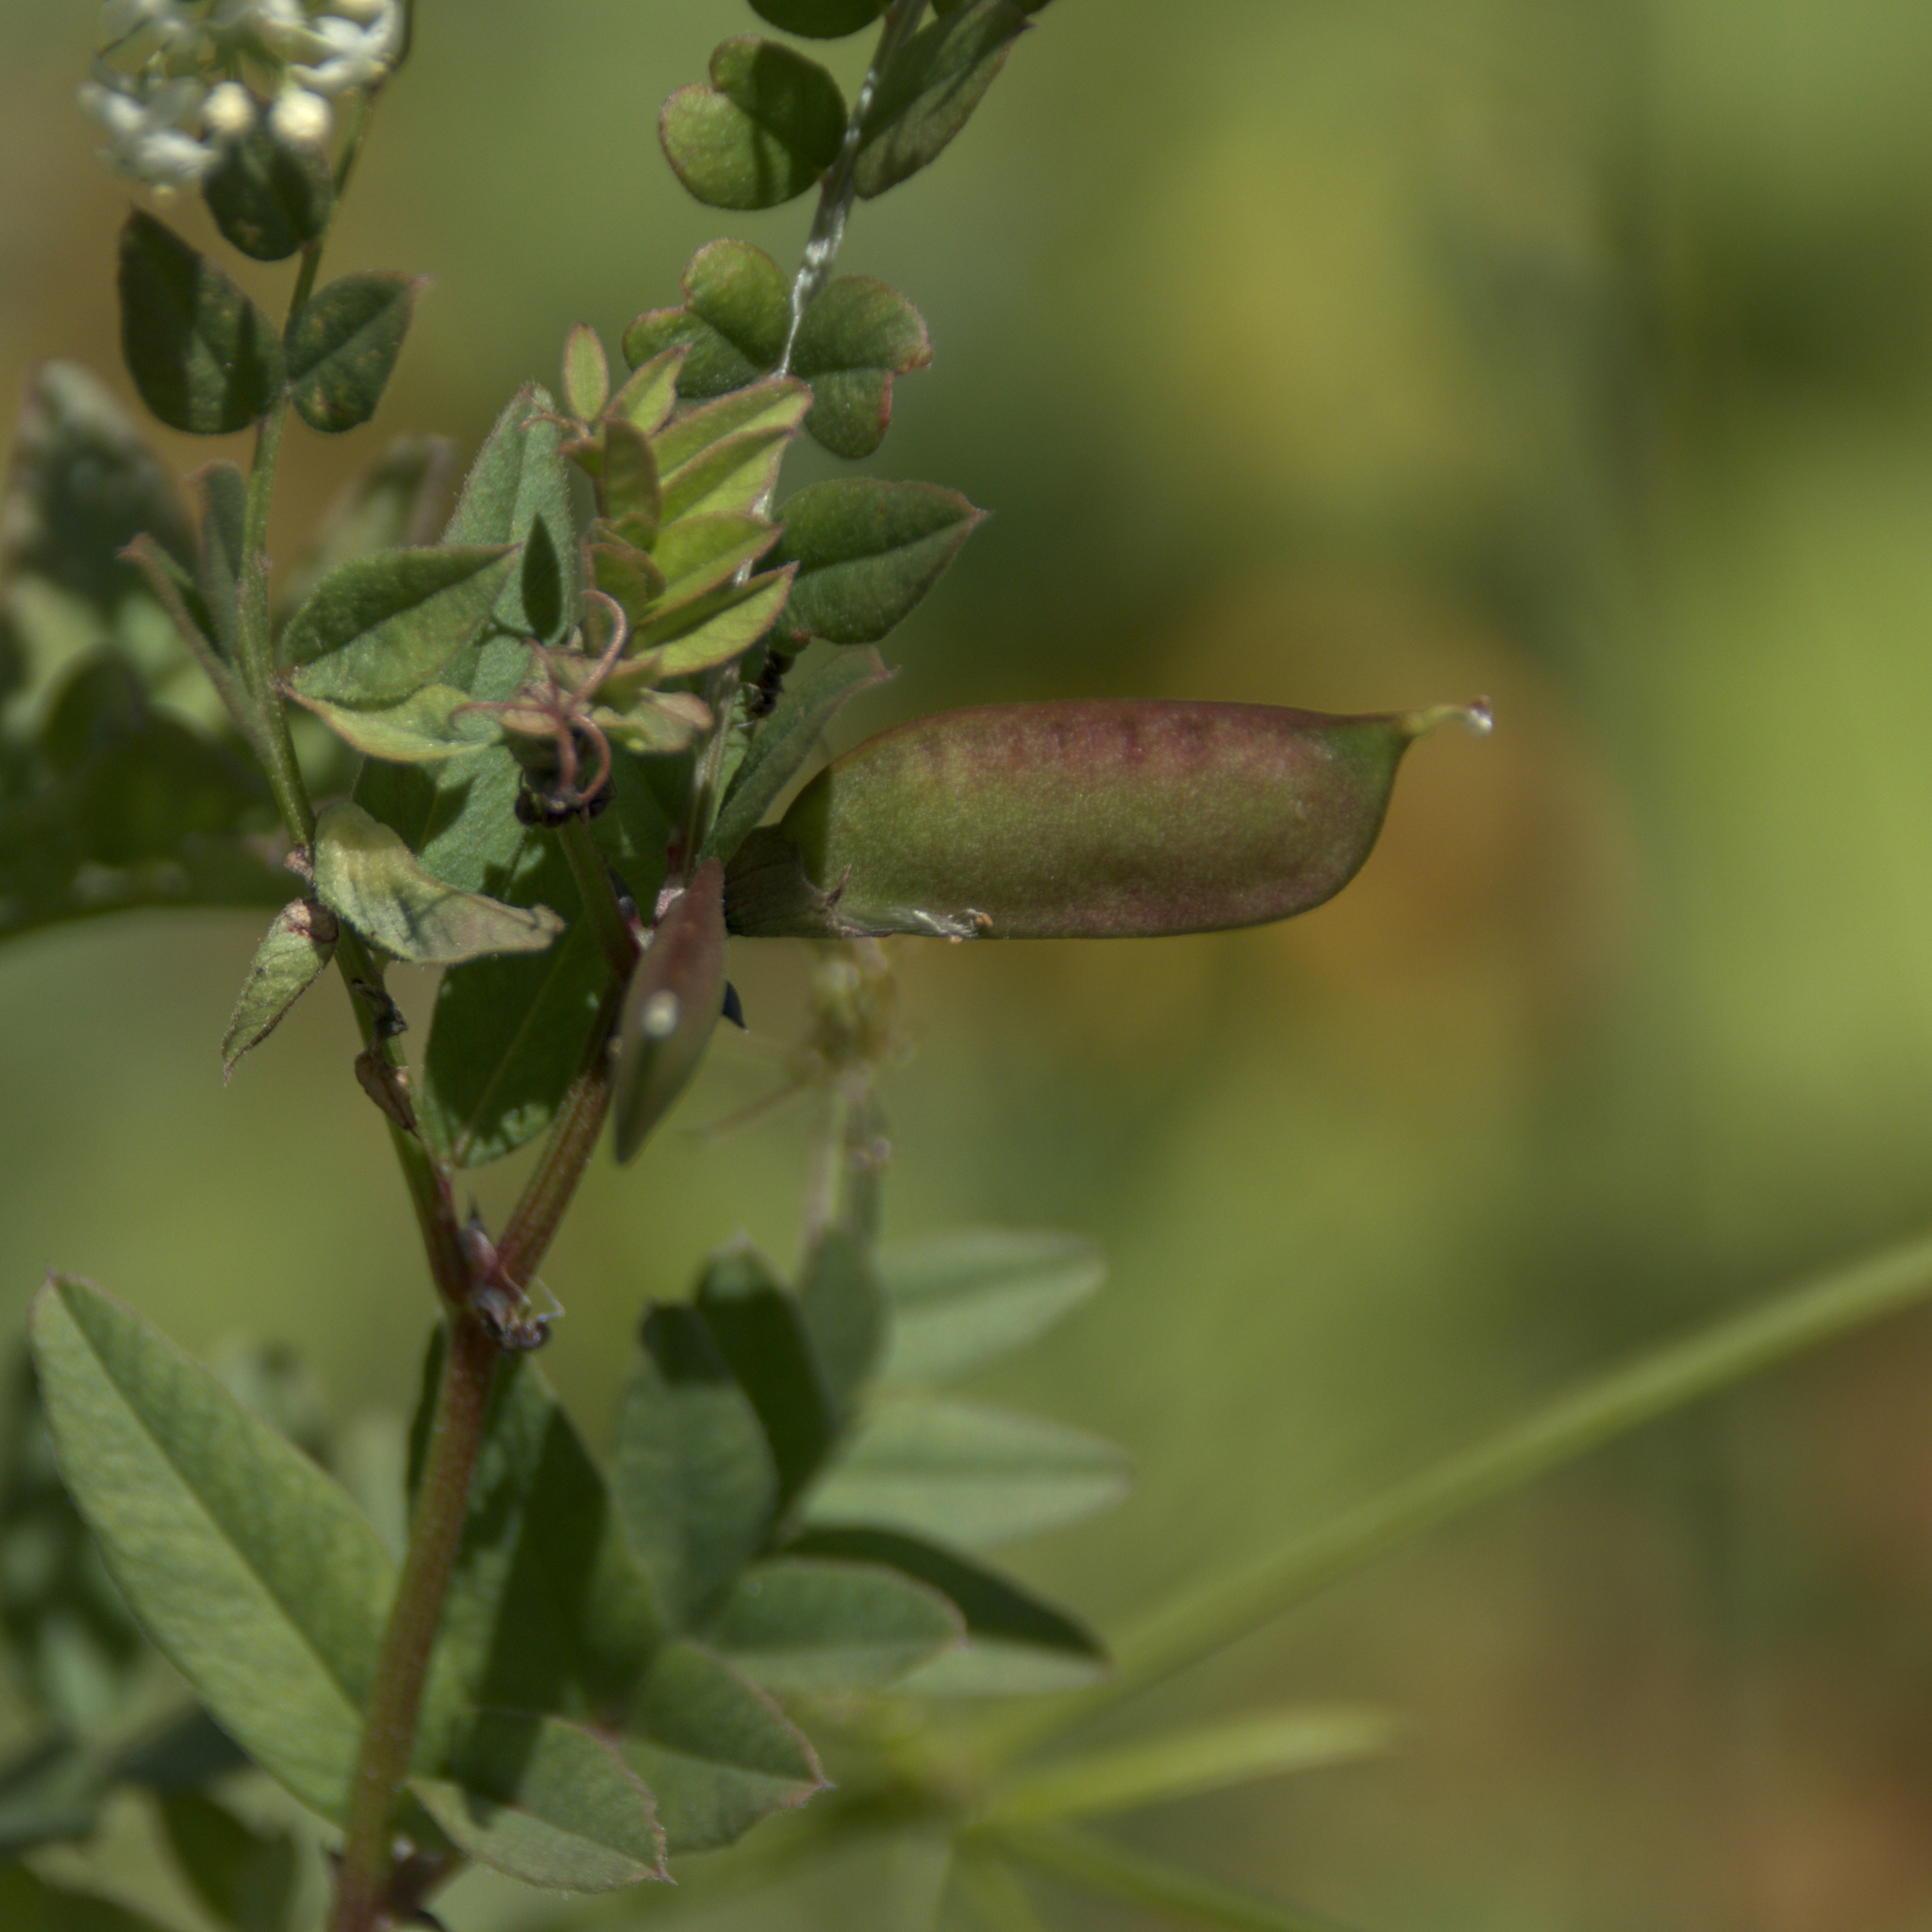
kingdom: Plantae
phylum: Tracheophyta
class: Magnoliopsida
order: Fabales
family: Fabaceae
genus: Vicia
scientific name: Vicia sepium
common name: Bush vetch
